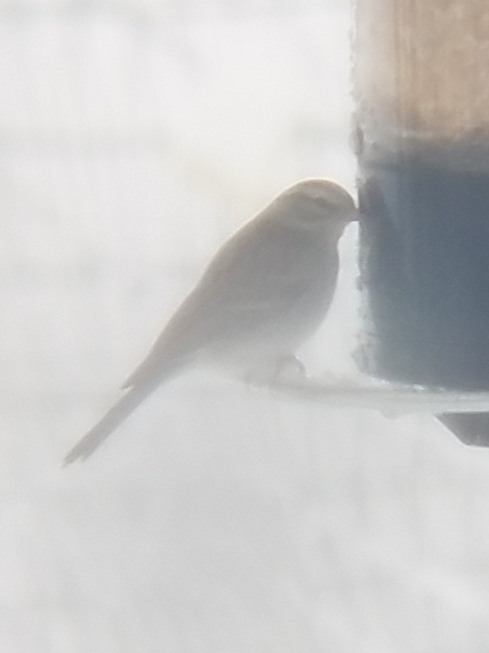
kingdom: Animalia
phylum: Chordata
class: Aves
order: Passeriformes
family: Passerellidae
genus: Spizella
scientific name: Spizella passerina
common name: Chipping sparrow
